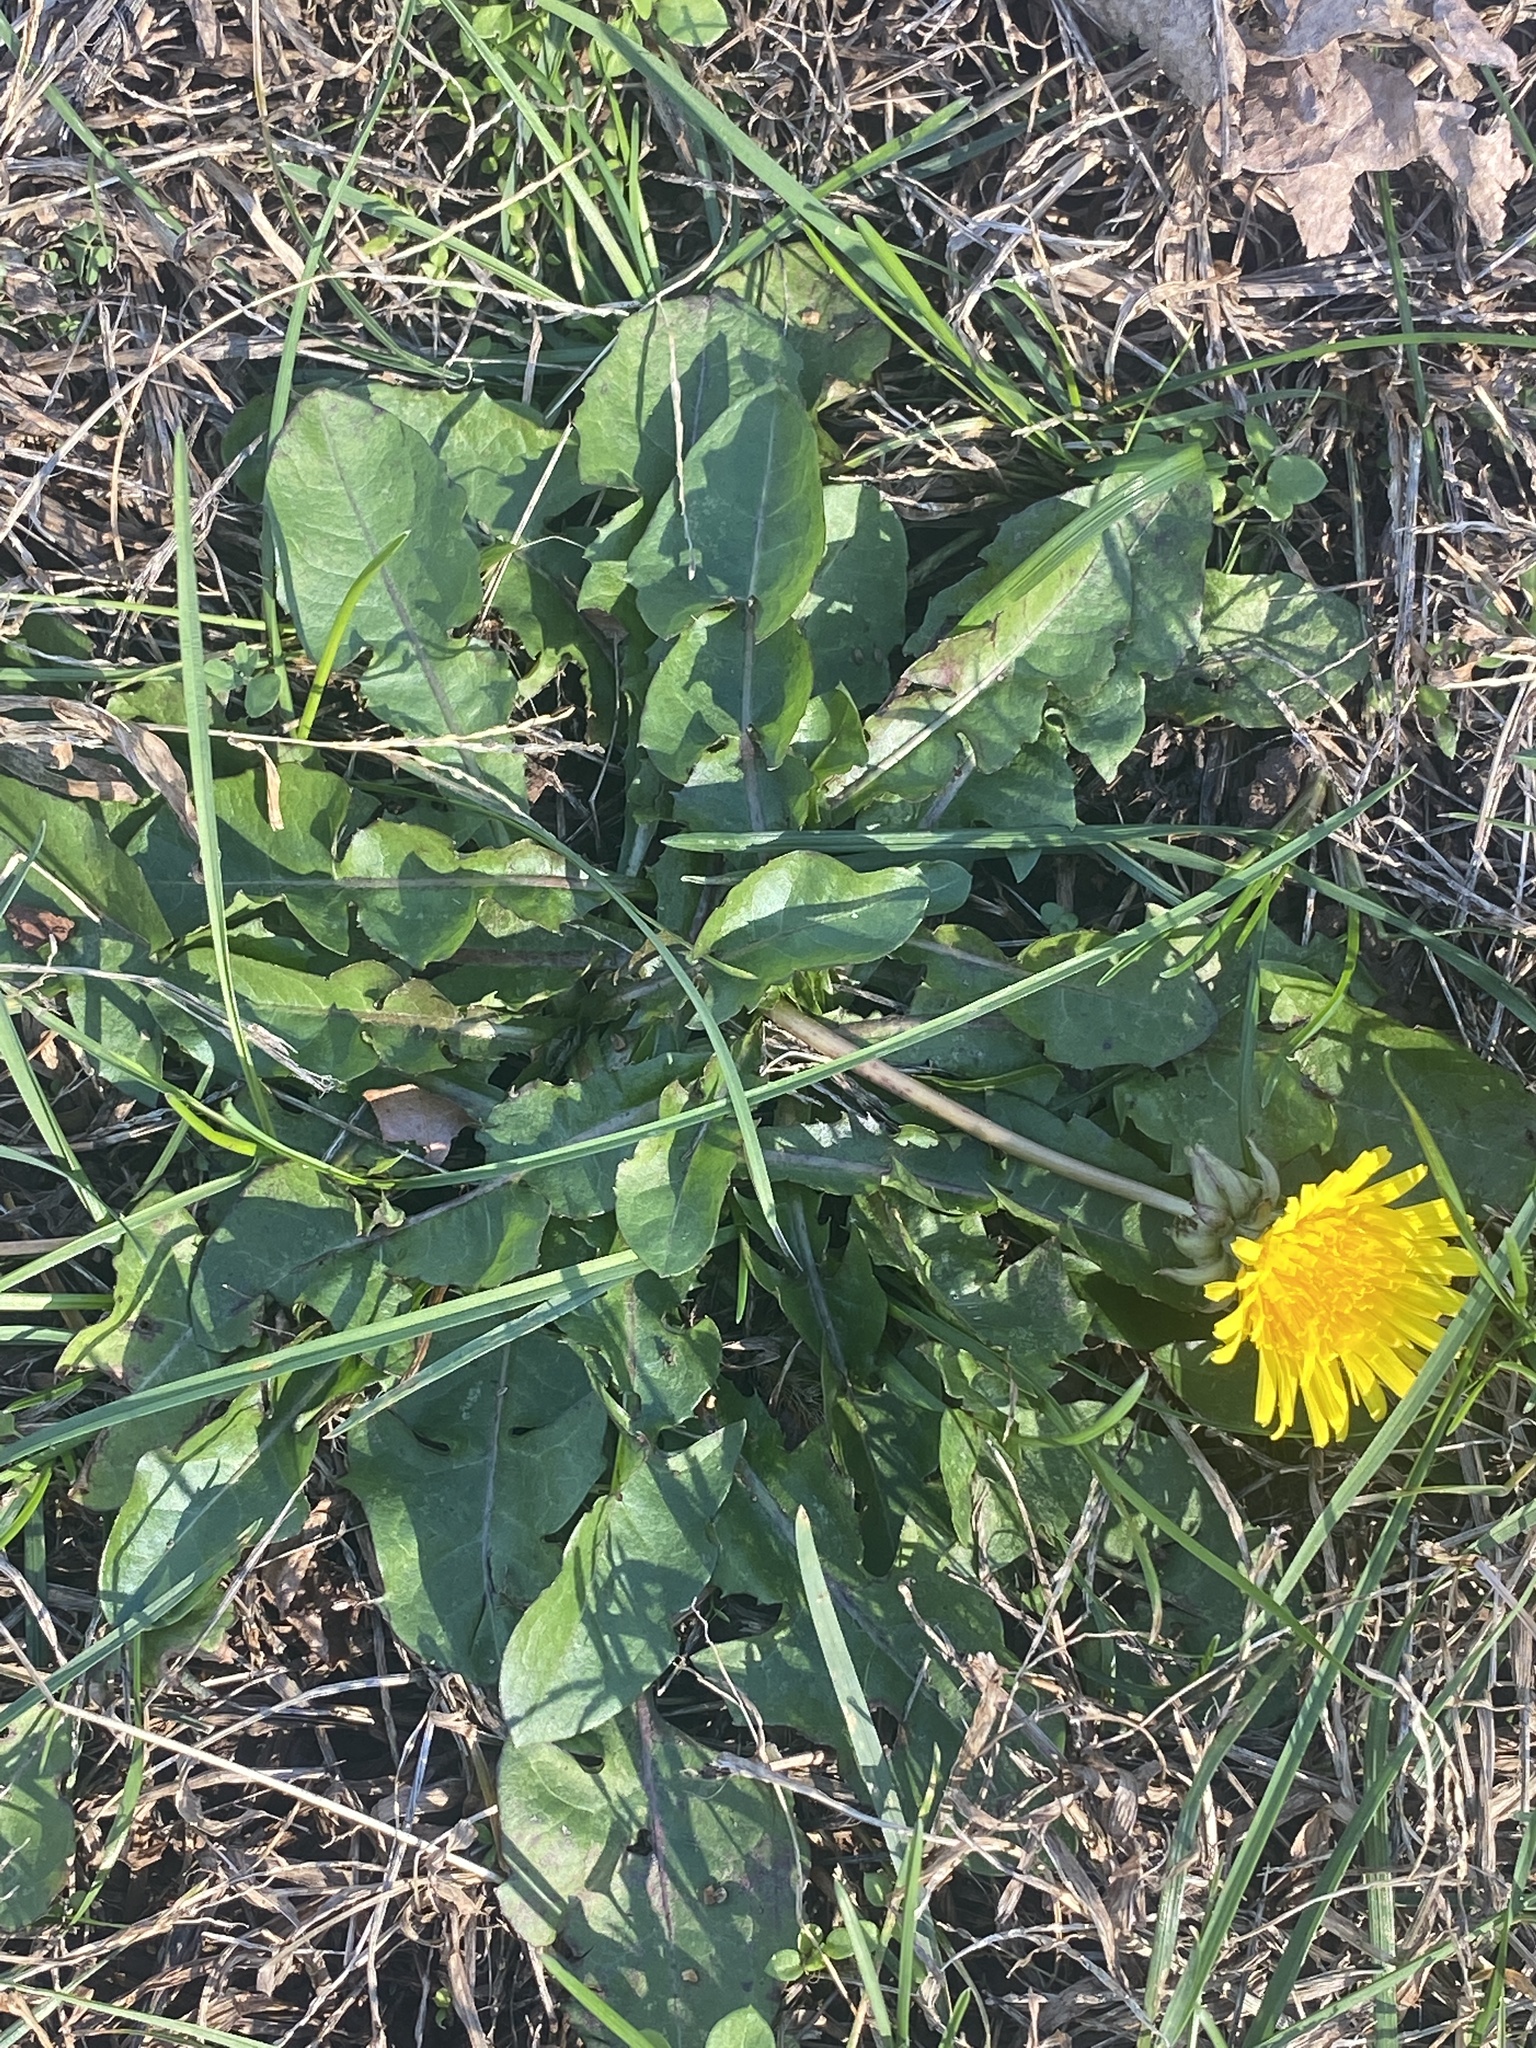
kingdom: Plantae
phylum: Tracheophyta
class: Magnoliopsida
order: Asterales
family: Asteraceae
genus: Taraxacum
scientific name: Taraxacum officinale
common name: Common dandelion
